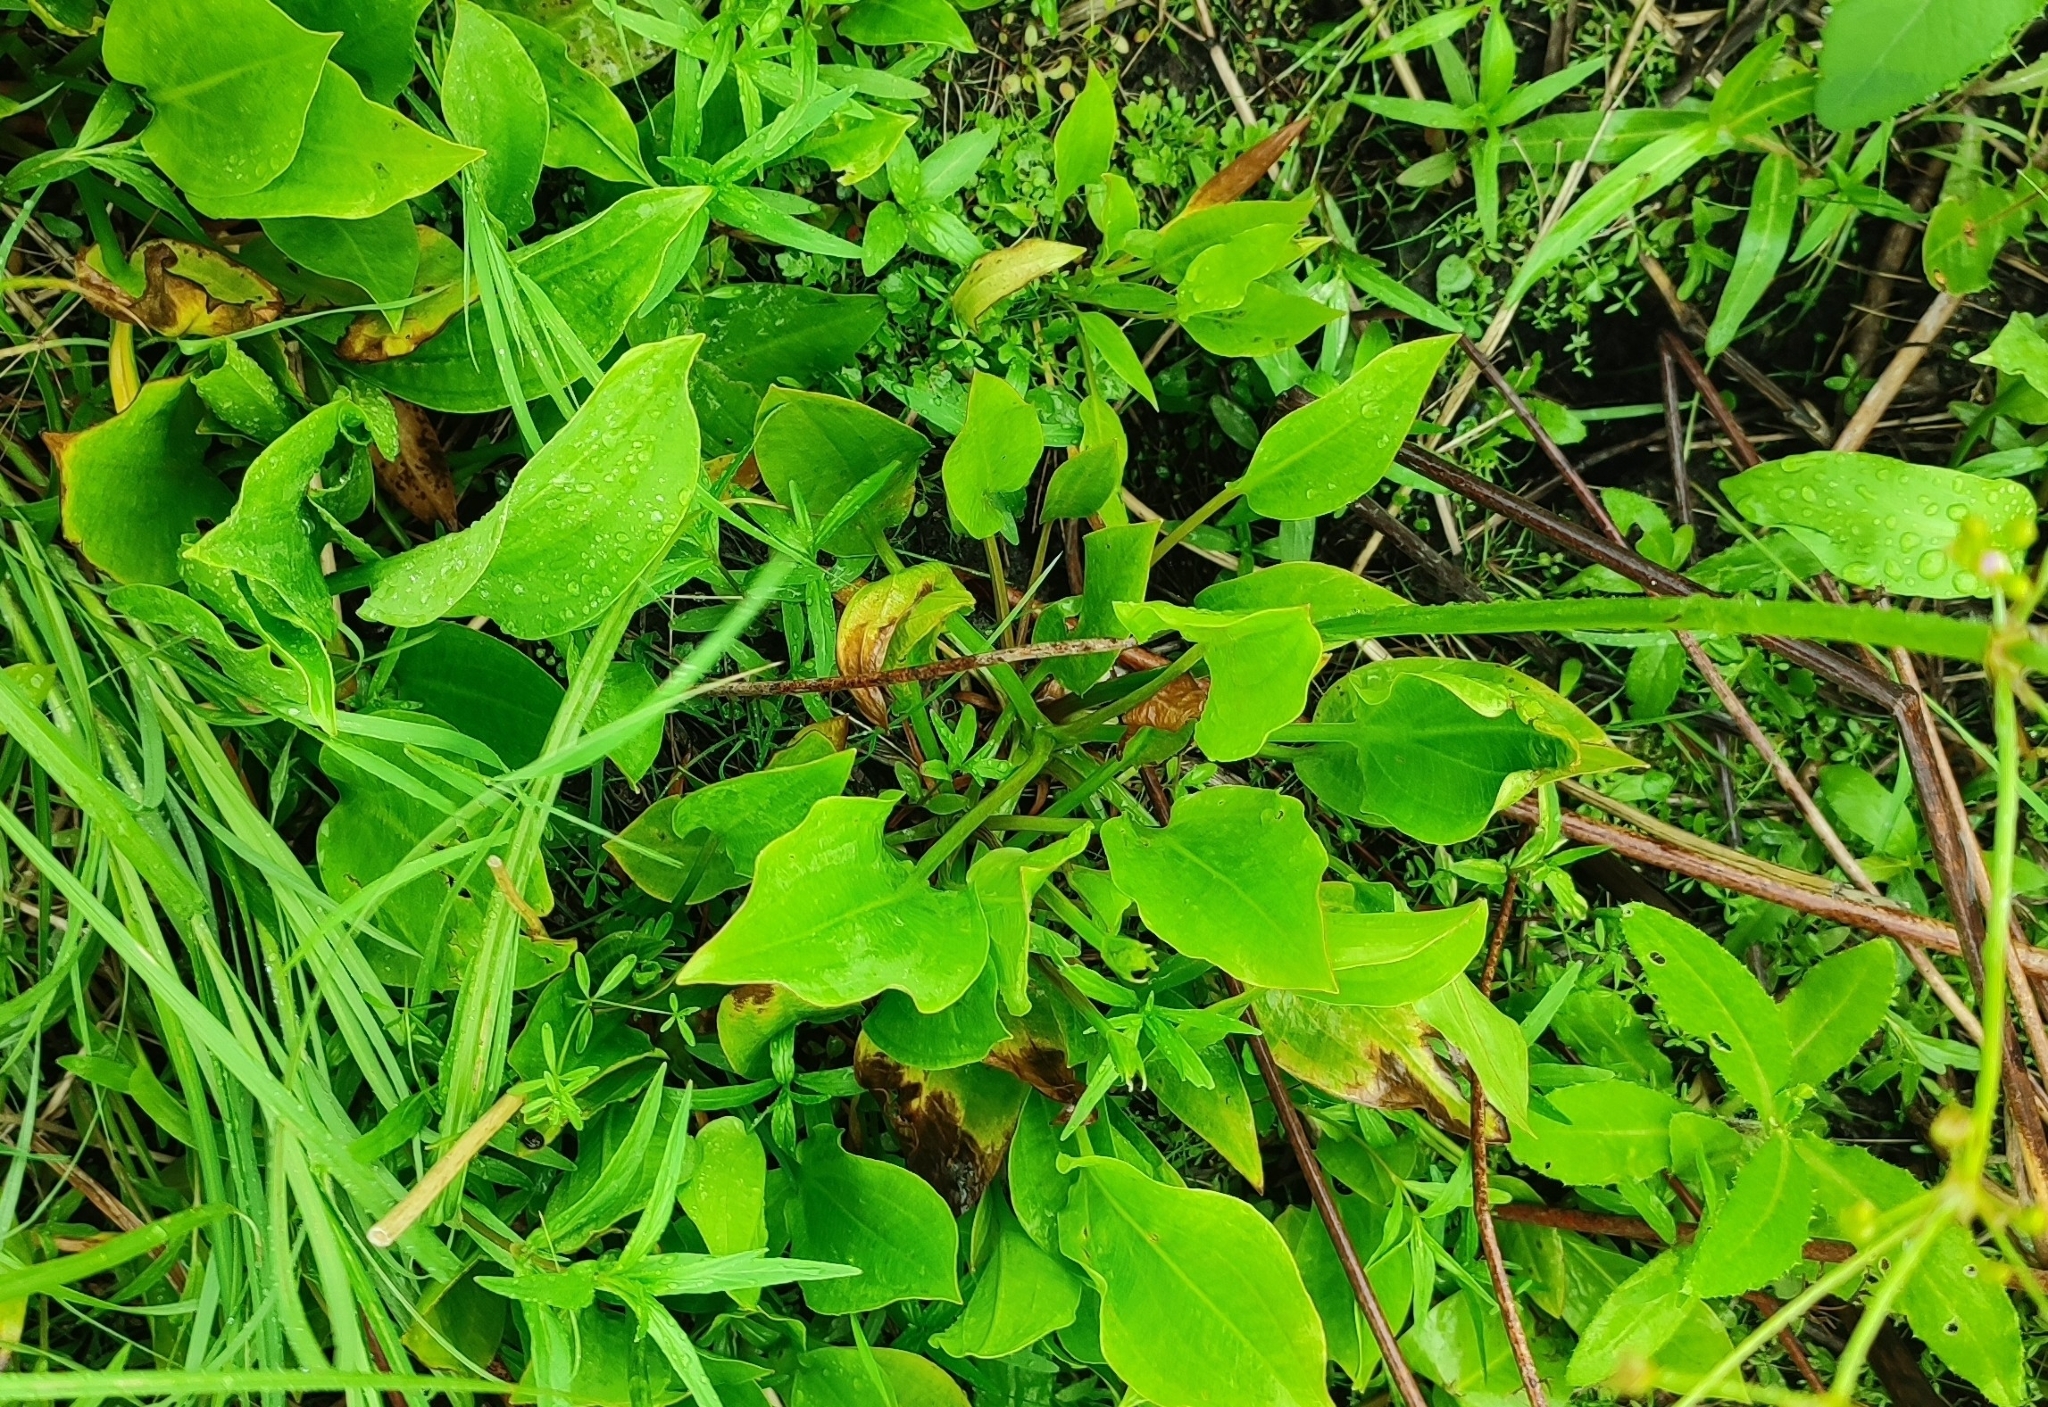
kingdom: Plantae
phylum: Tracheophyta
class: Liliopsida
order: Alismatales
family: Alismataceae
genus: Alisma
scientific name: Alisma plantago-aquatica
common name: Water-plantain
